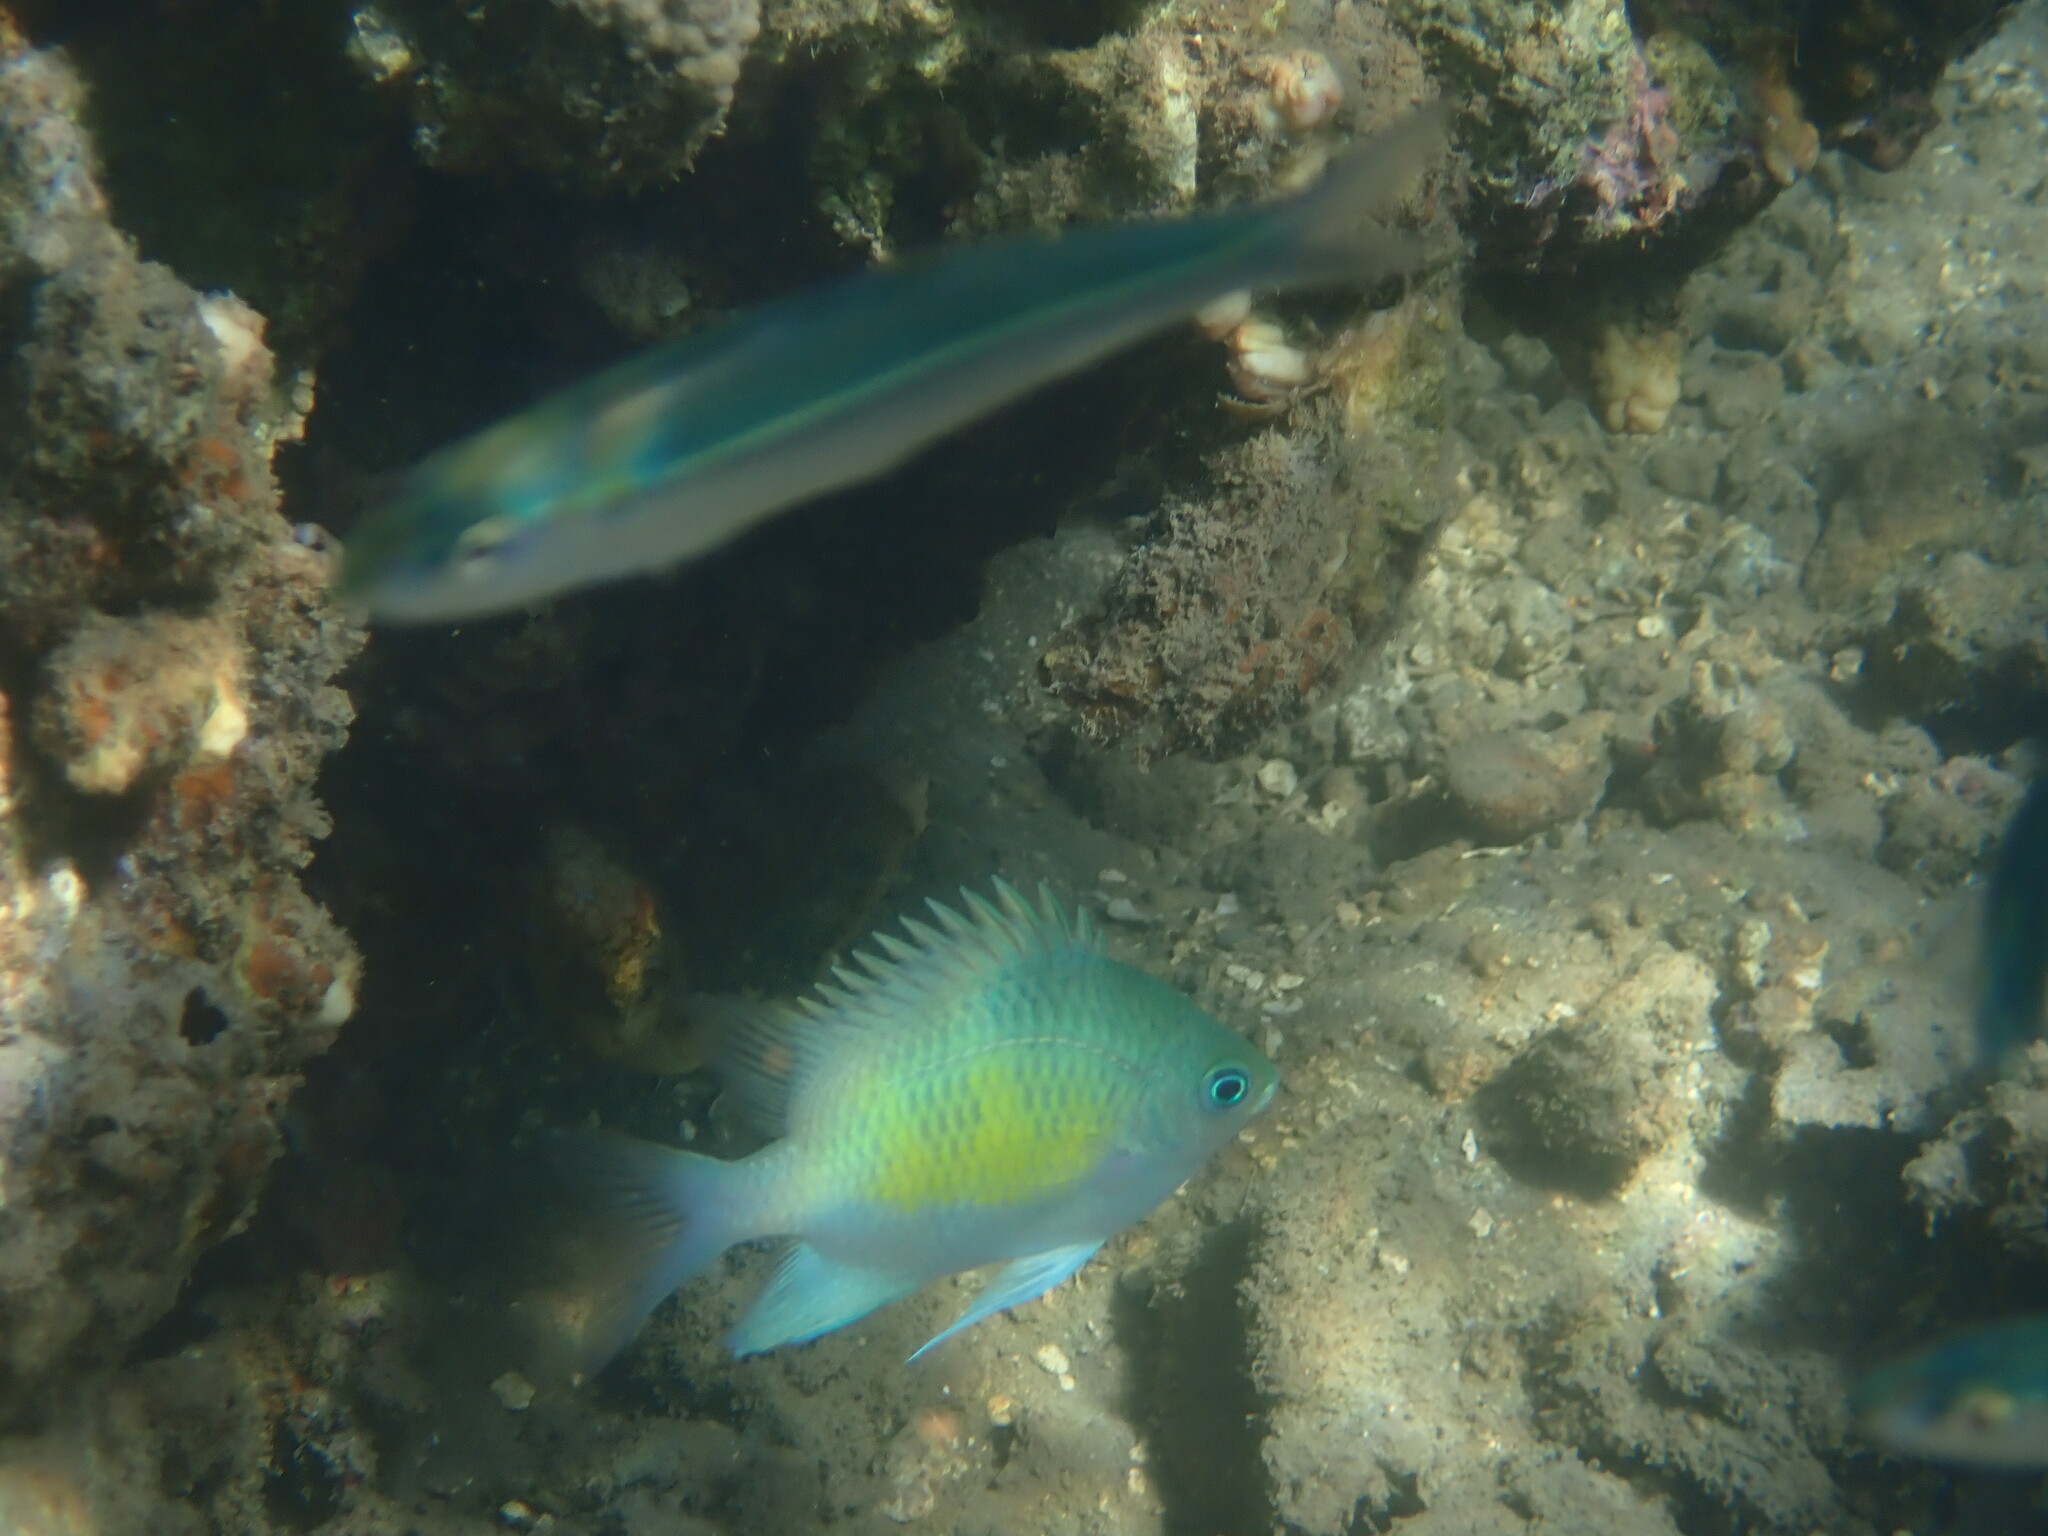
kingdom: Animalia
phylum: Chordata
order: Perciformes
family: Pomacentridae
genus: Amblyglyphidodon
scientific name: Amblyglyphidodon curacao
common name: Staghorn damsel
